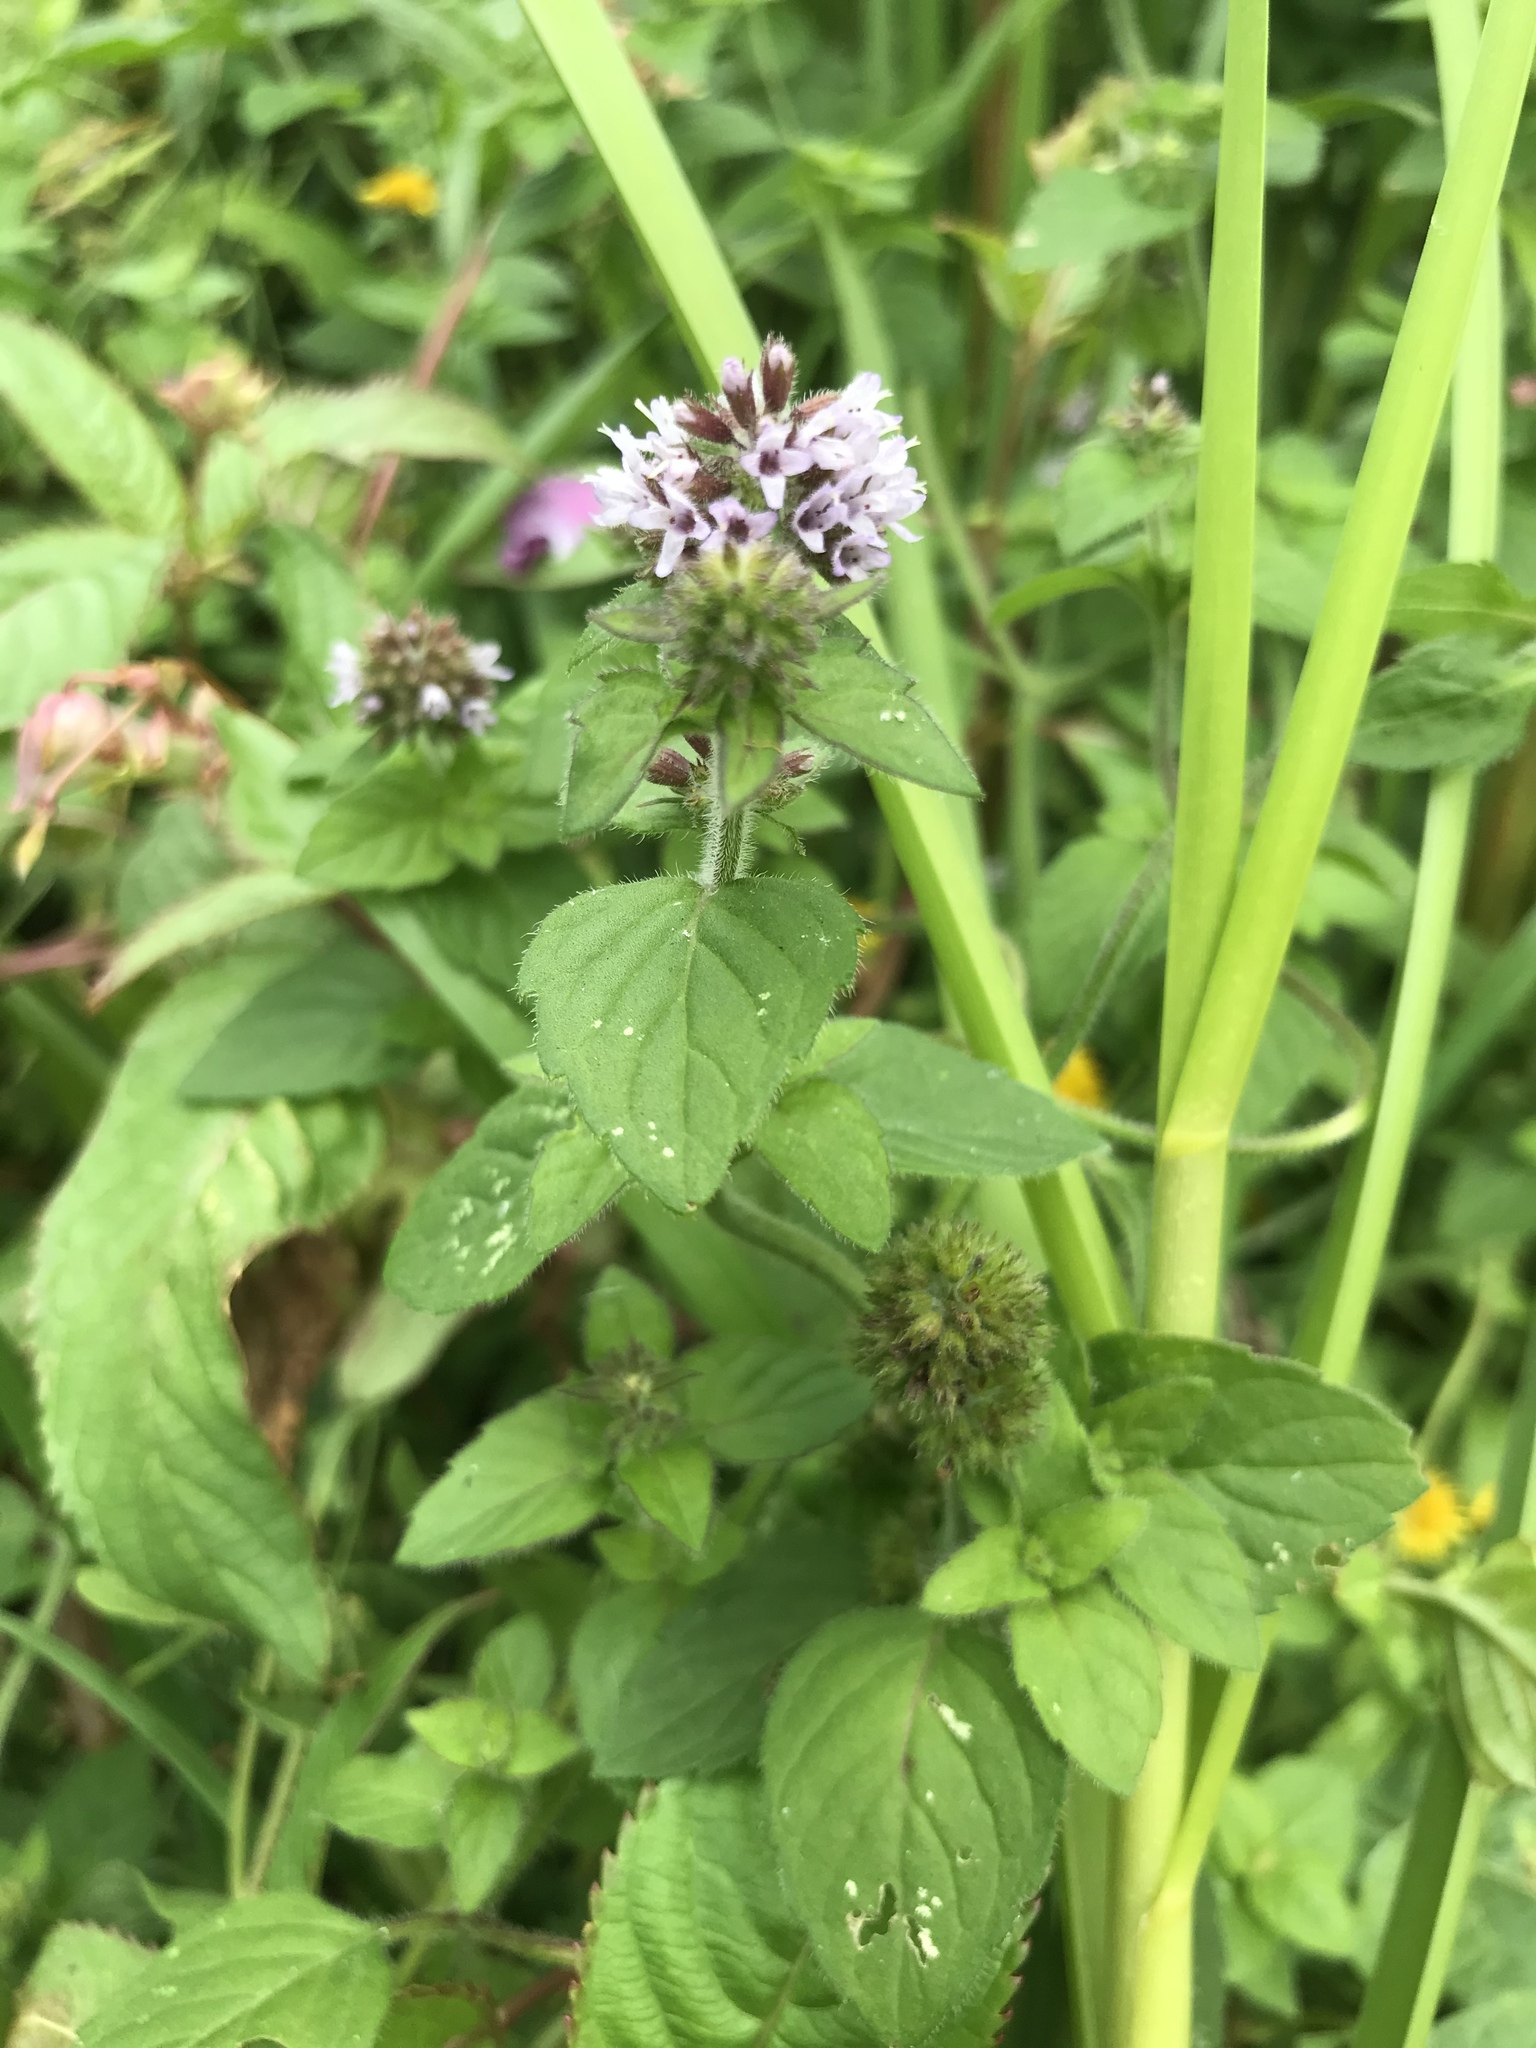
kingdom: Plantae
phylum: Tracheophyta
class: Magnoliopsida
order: Lamiales
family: Lamiaceae
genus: Mentha
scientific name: Mentha aquatica
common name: Water mint
